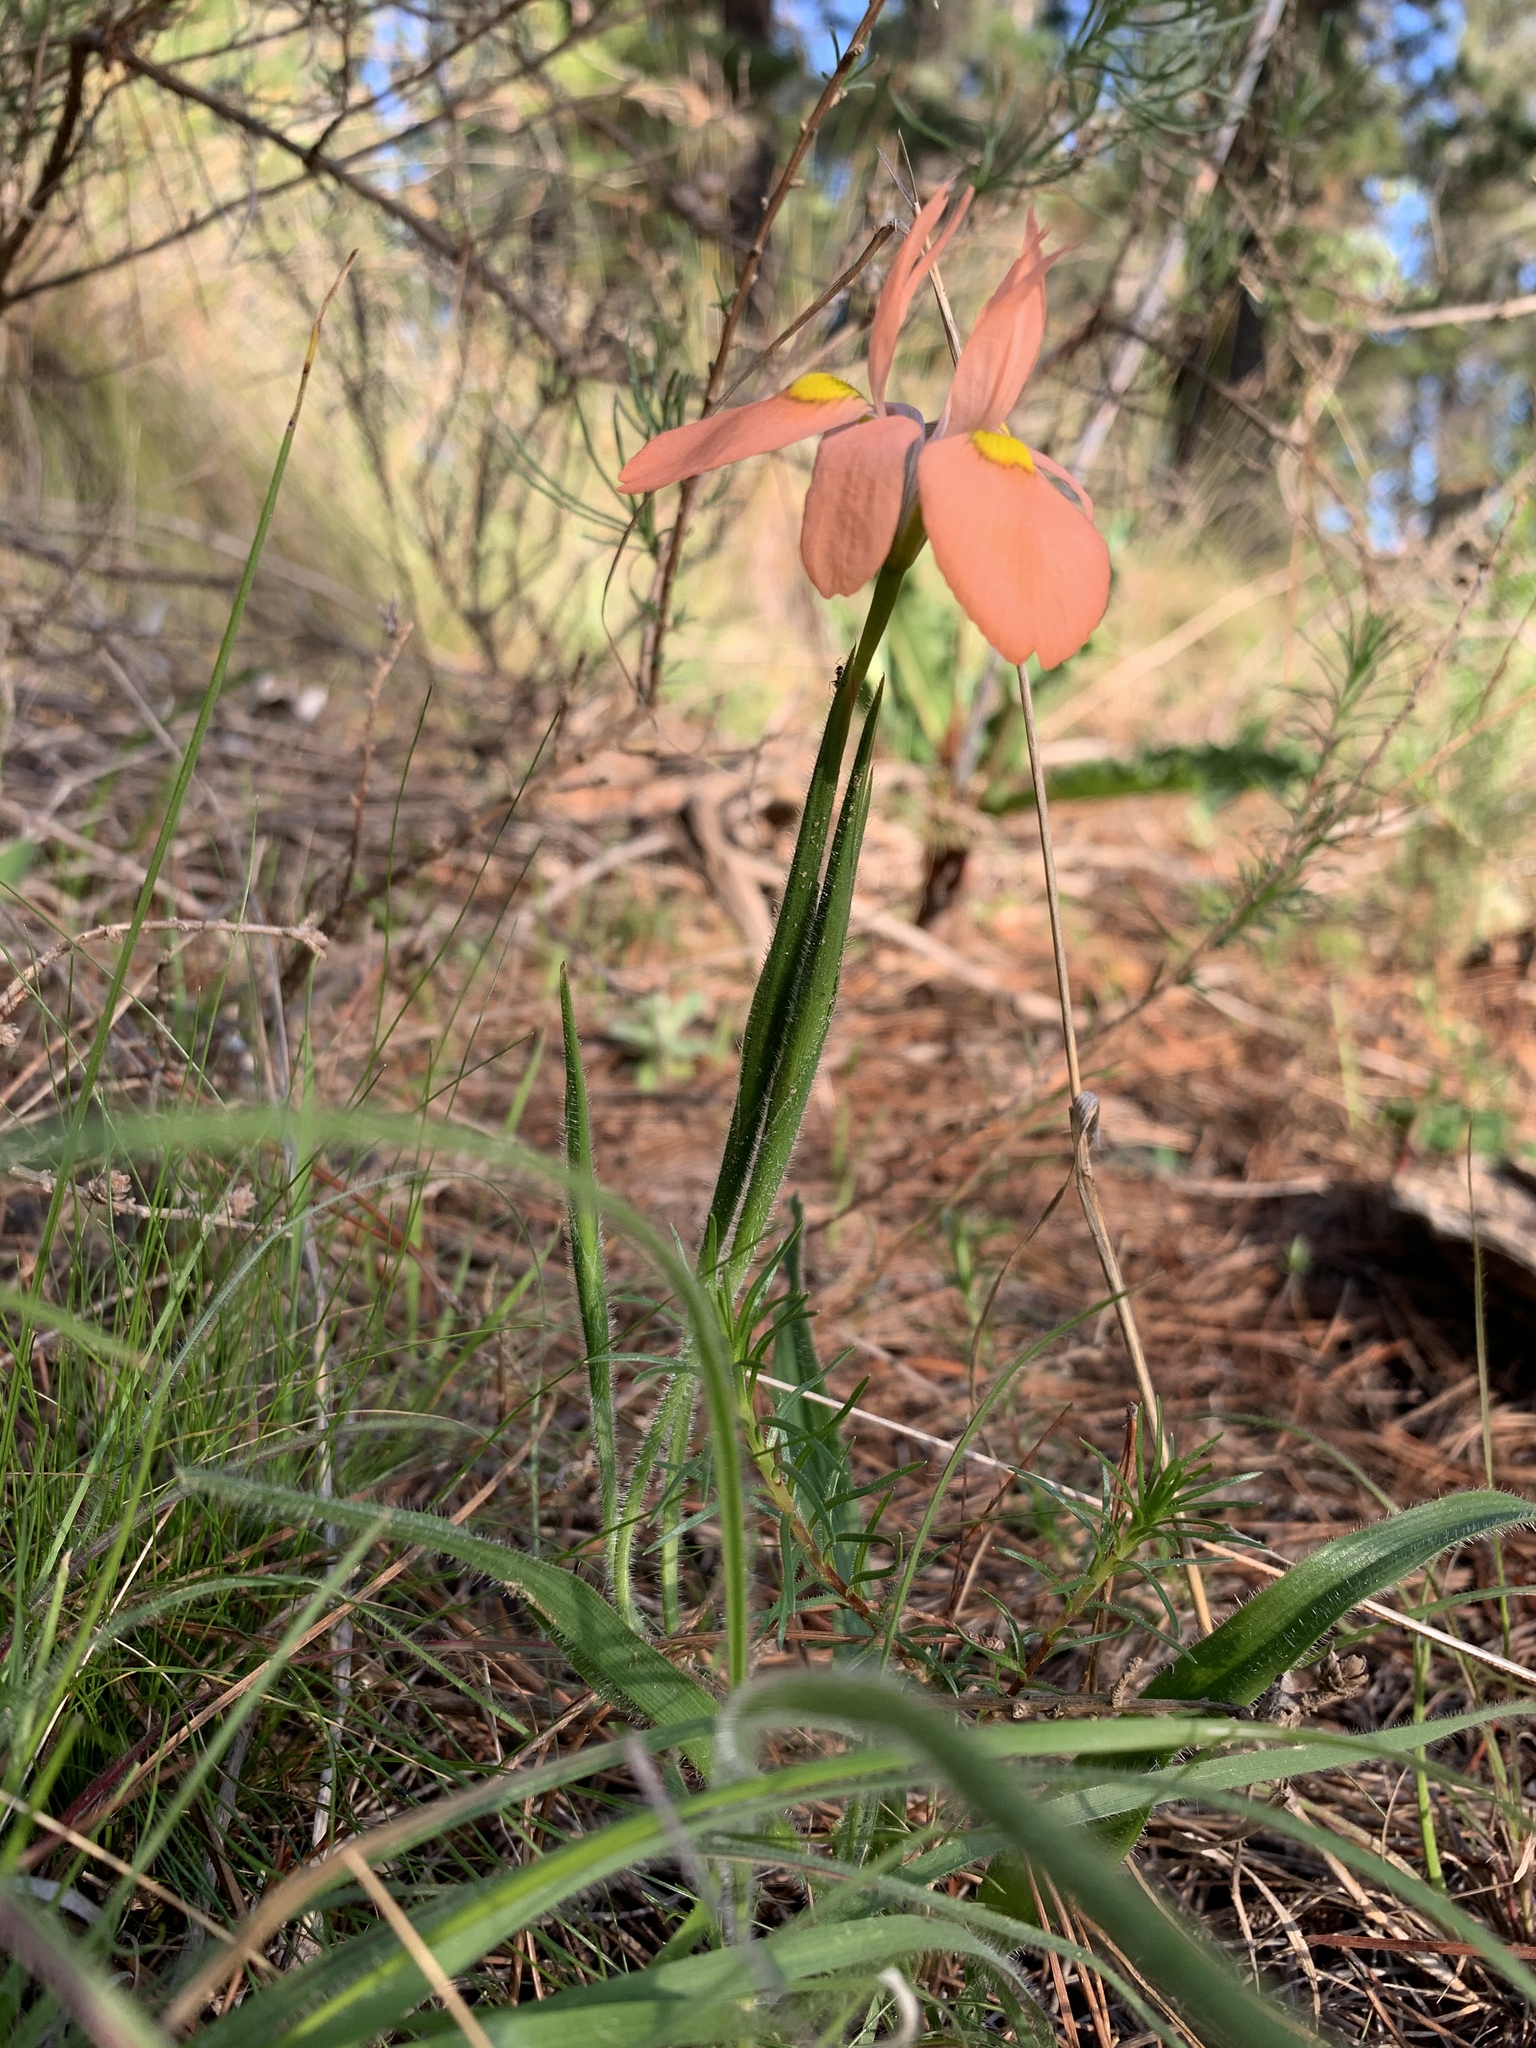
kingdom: Plantae
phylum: Tracheophyta
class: Liliopsida
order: Asparagales
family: Iridaceae
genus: Moraea
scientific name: Moraea papilionacea
